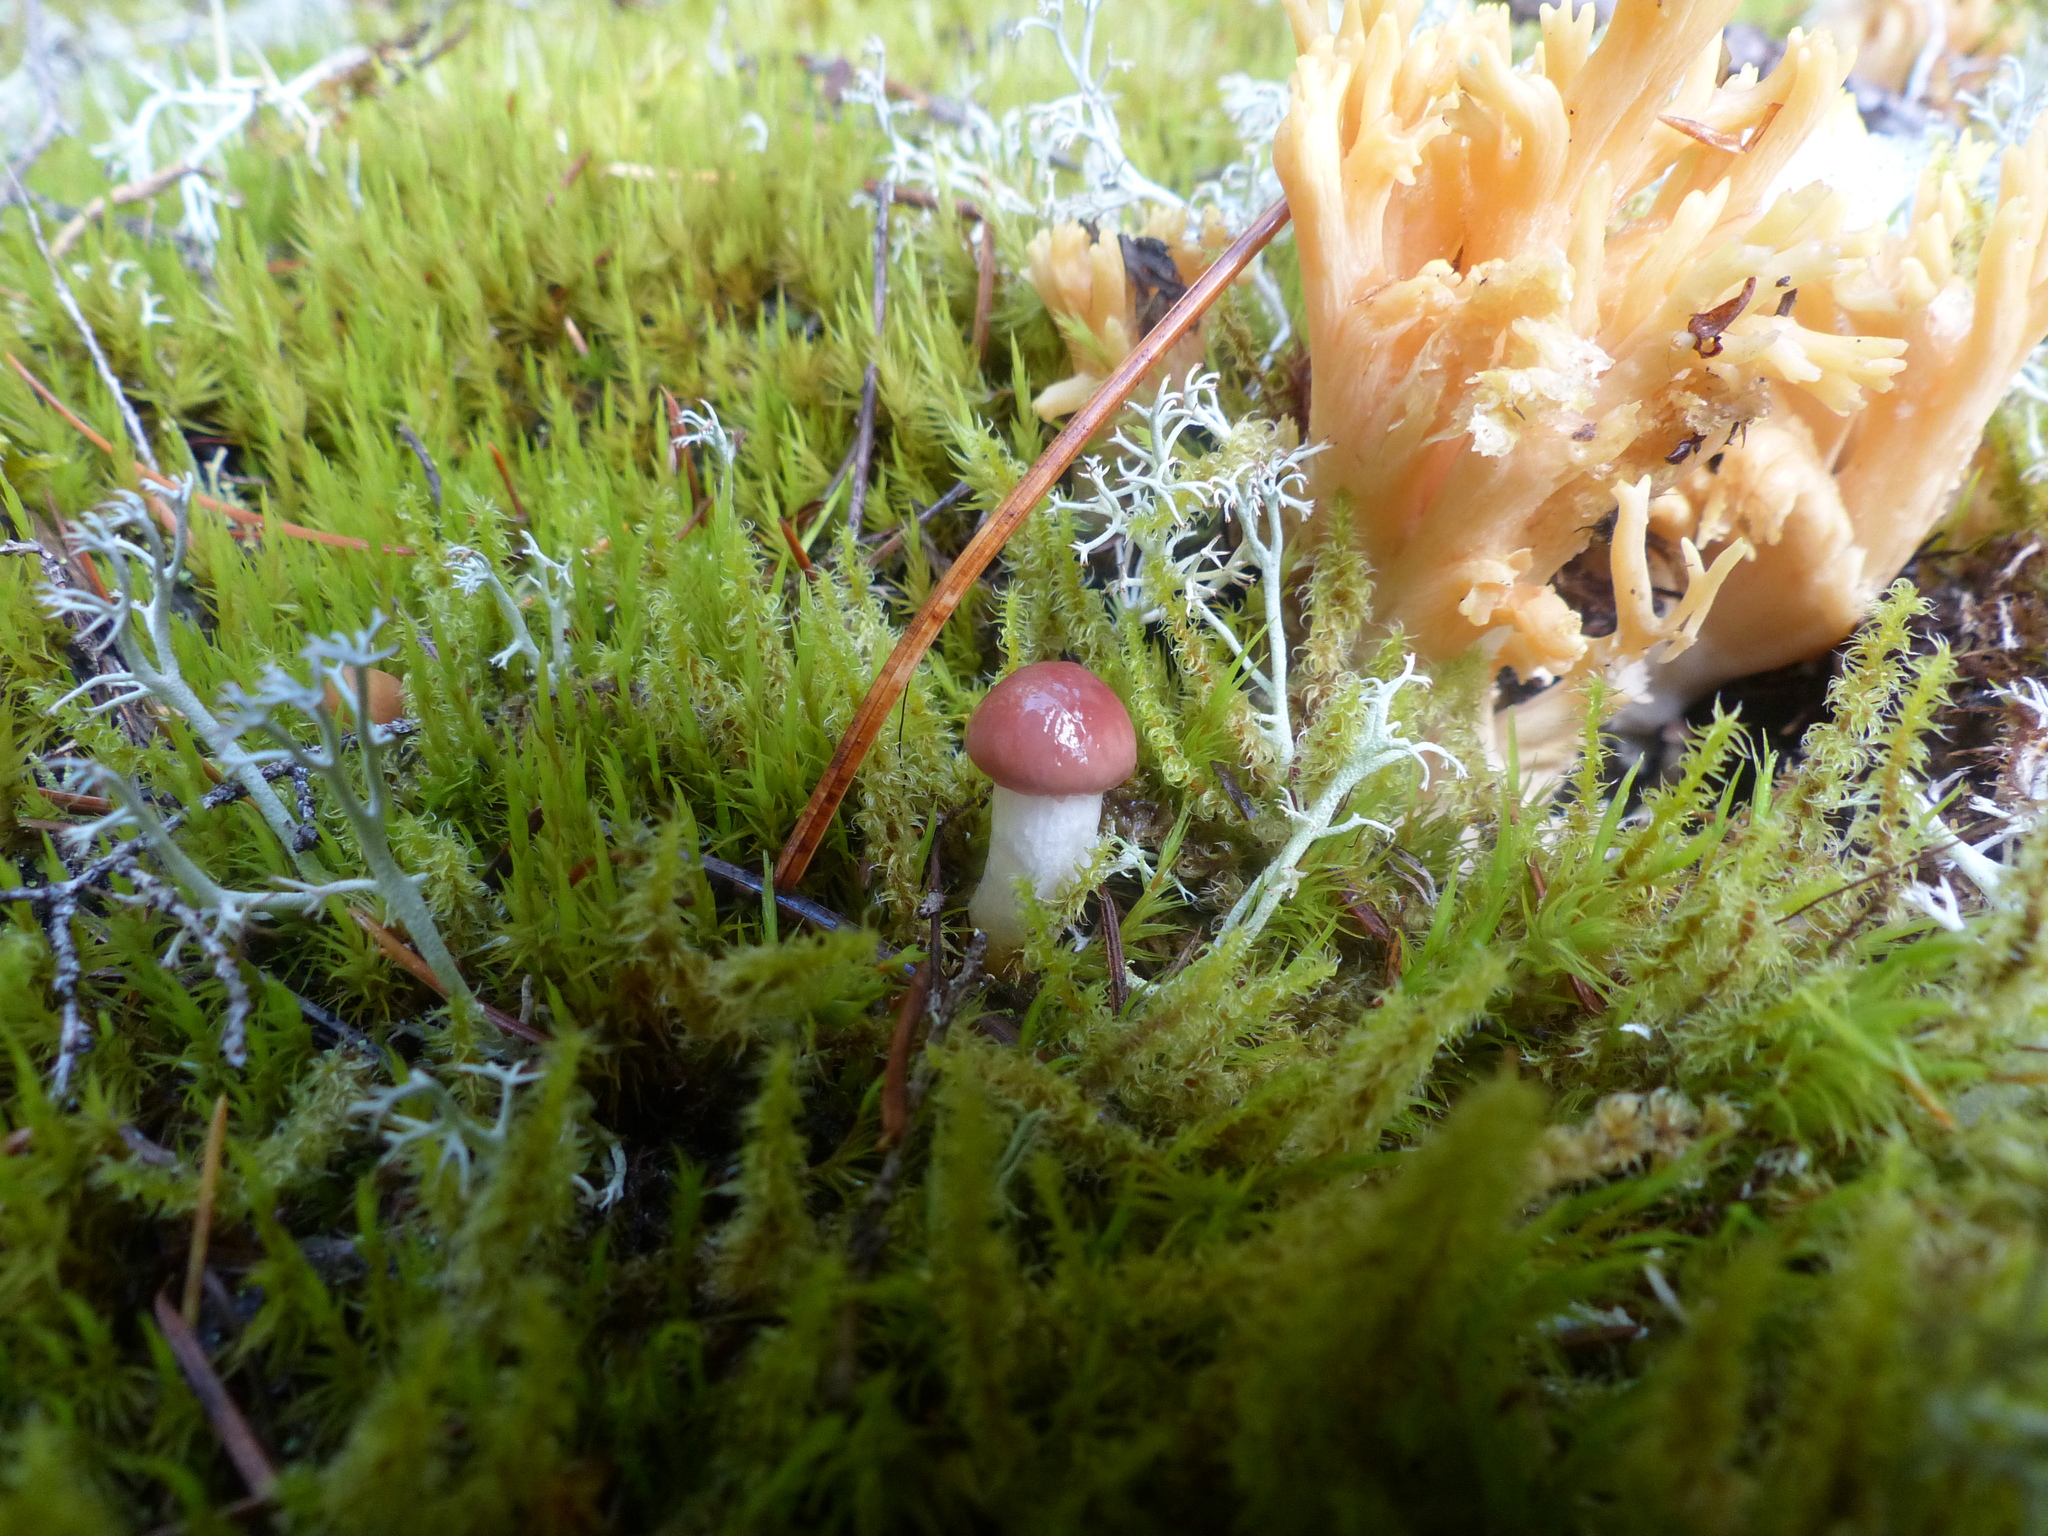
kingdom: Fungi
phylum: Basidiomycota
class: Agaricomycetes
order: Boletales
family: Gomphidiaceae
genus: Gomphidius
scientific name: Gomphidius subroseus
